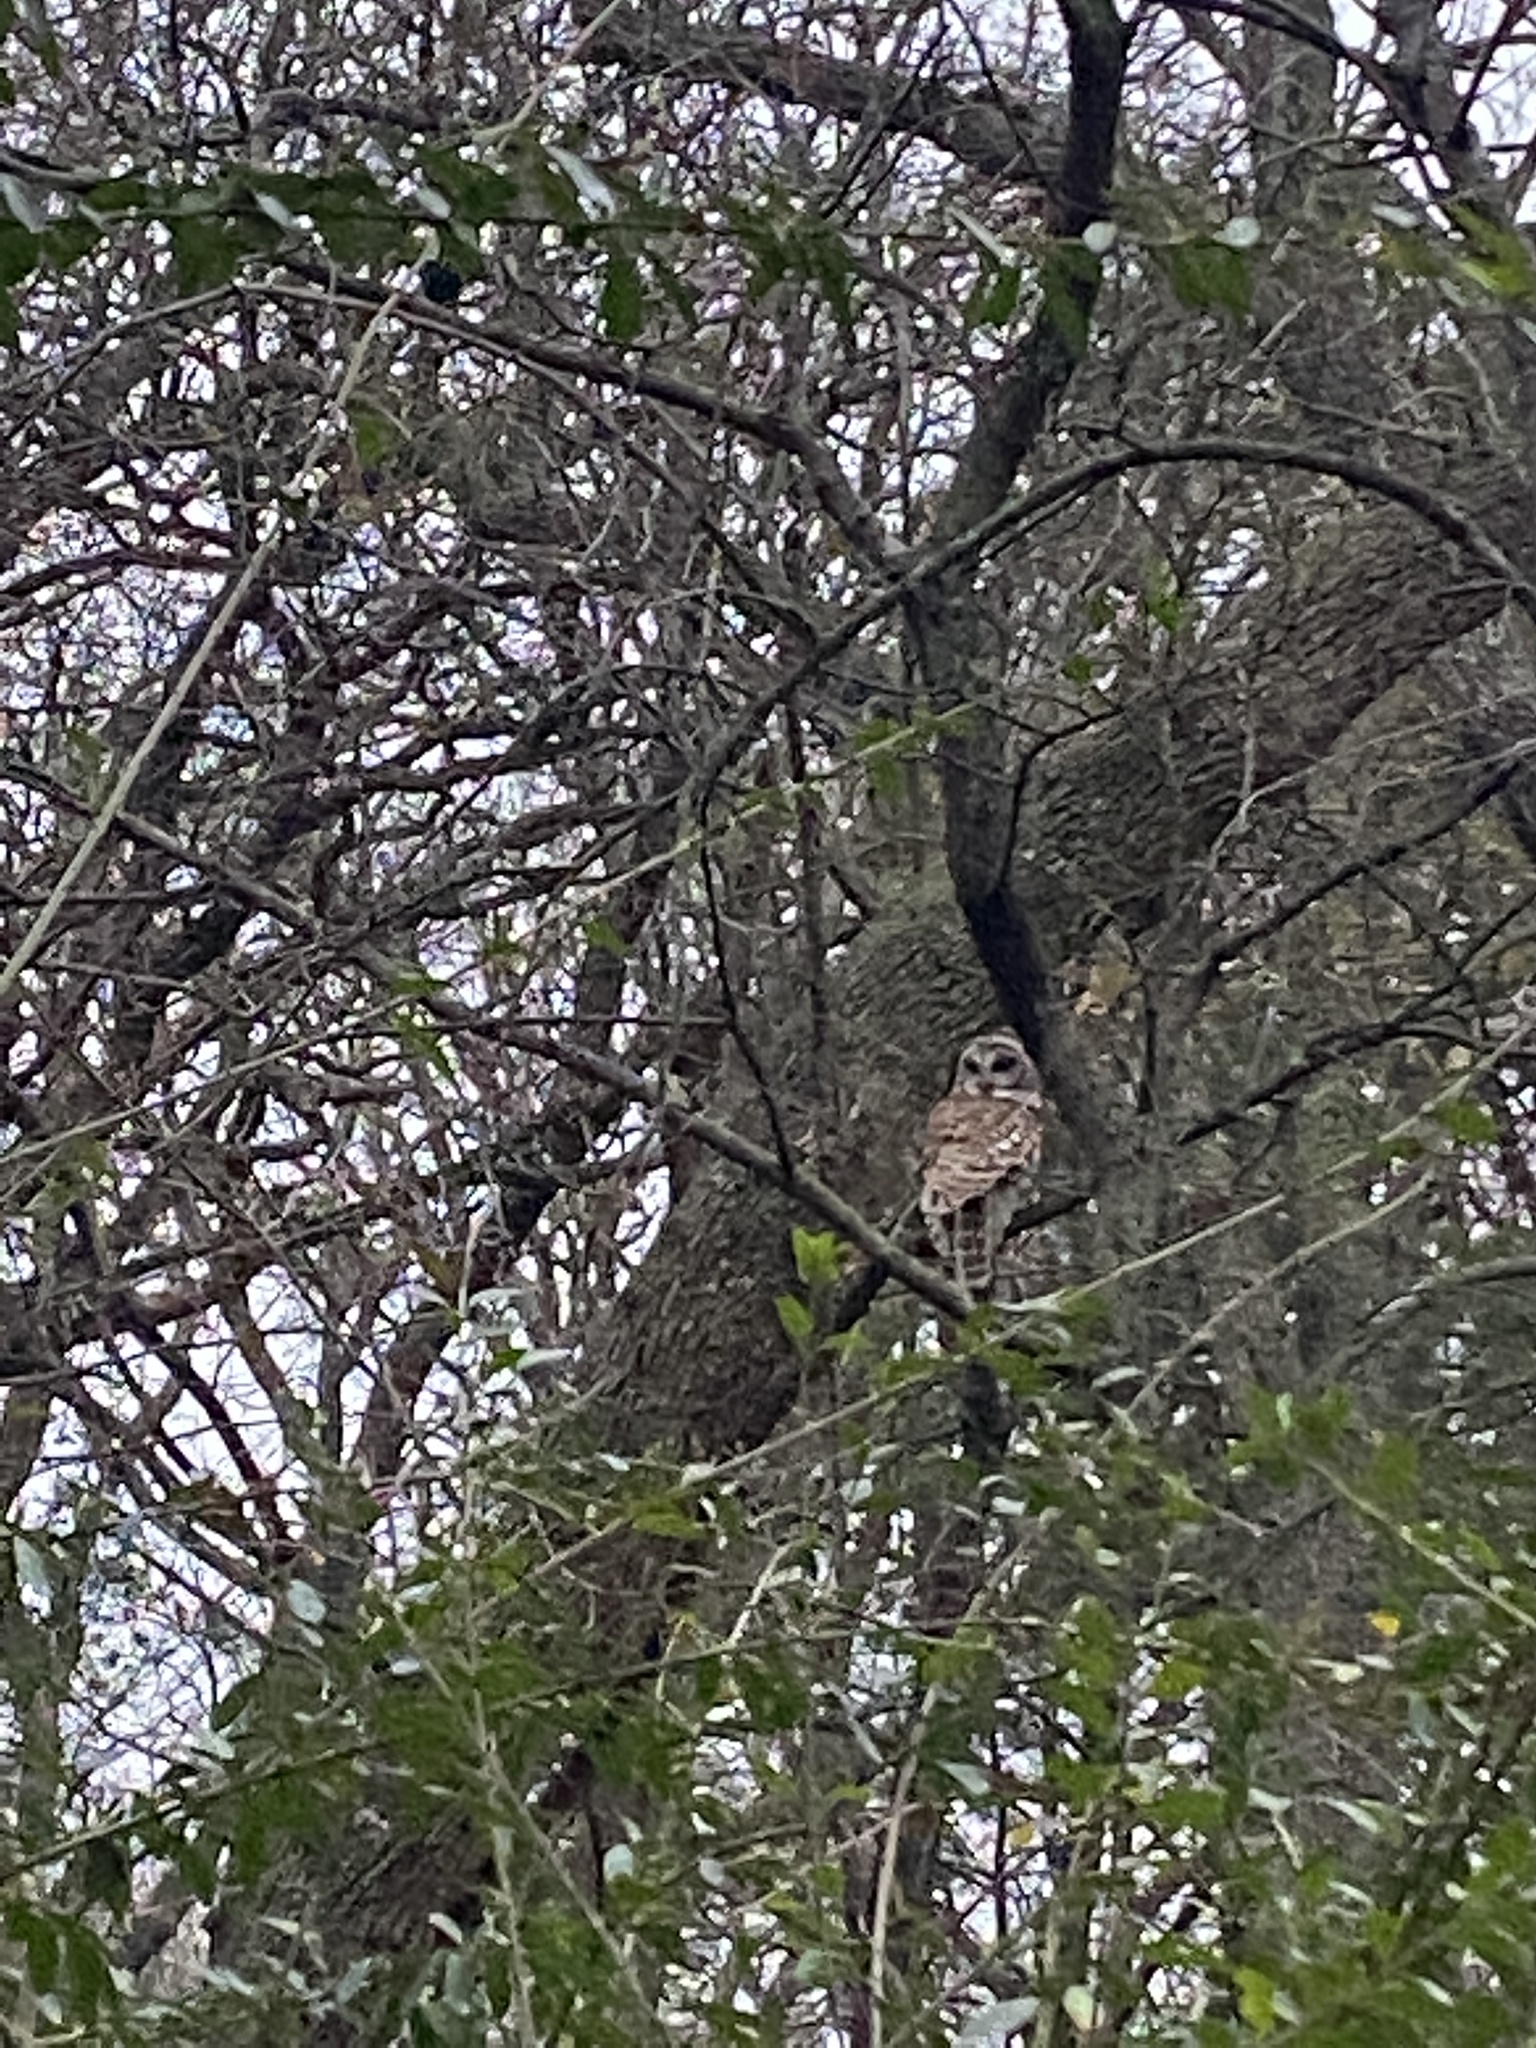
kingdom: Animalia
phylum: Chordata
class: Aves
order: Strigiformes
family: Strigidae
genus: Strix
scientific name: Strix varia
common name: Barred owl
